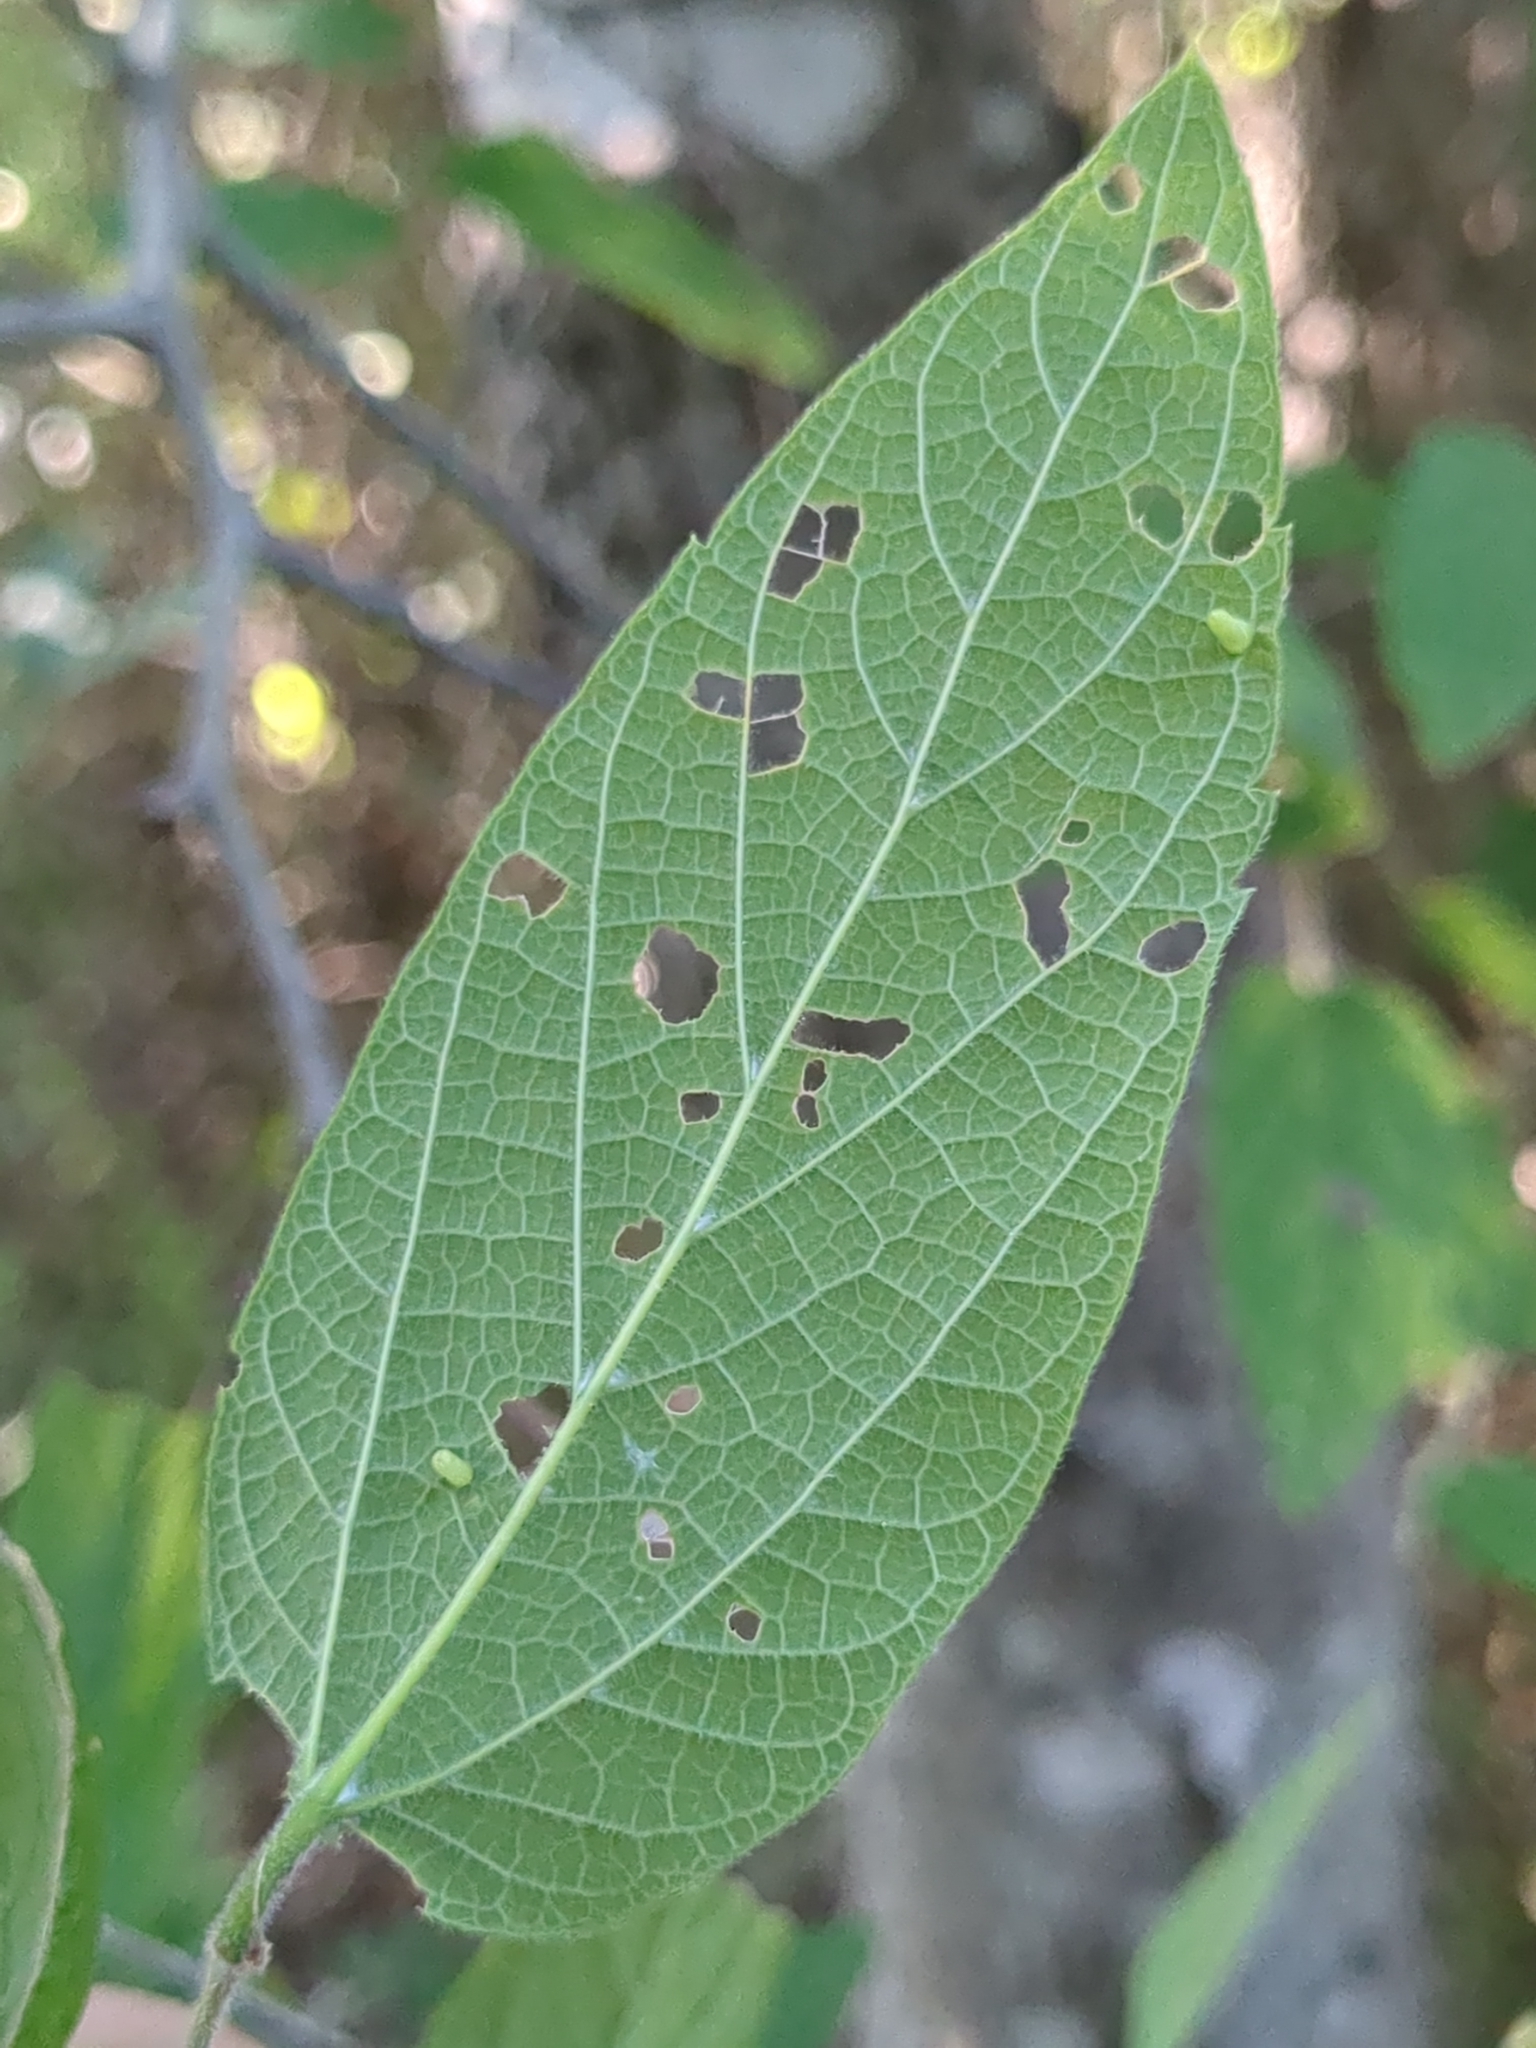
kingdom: Plantae
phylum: Tracheophyta
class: Magnoliopsida
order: Rosales
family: Cannabaceae
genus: Celtis
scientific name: Celtis reticulata
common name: Netleaf hackberry
